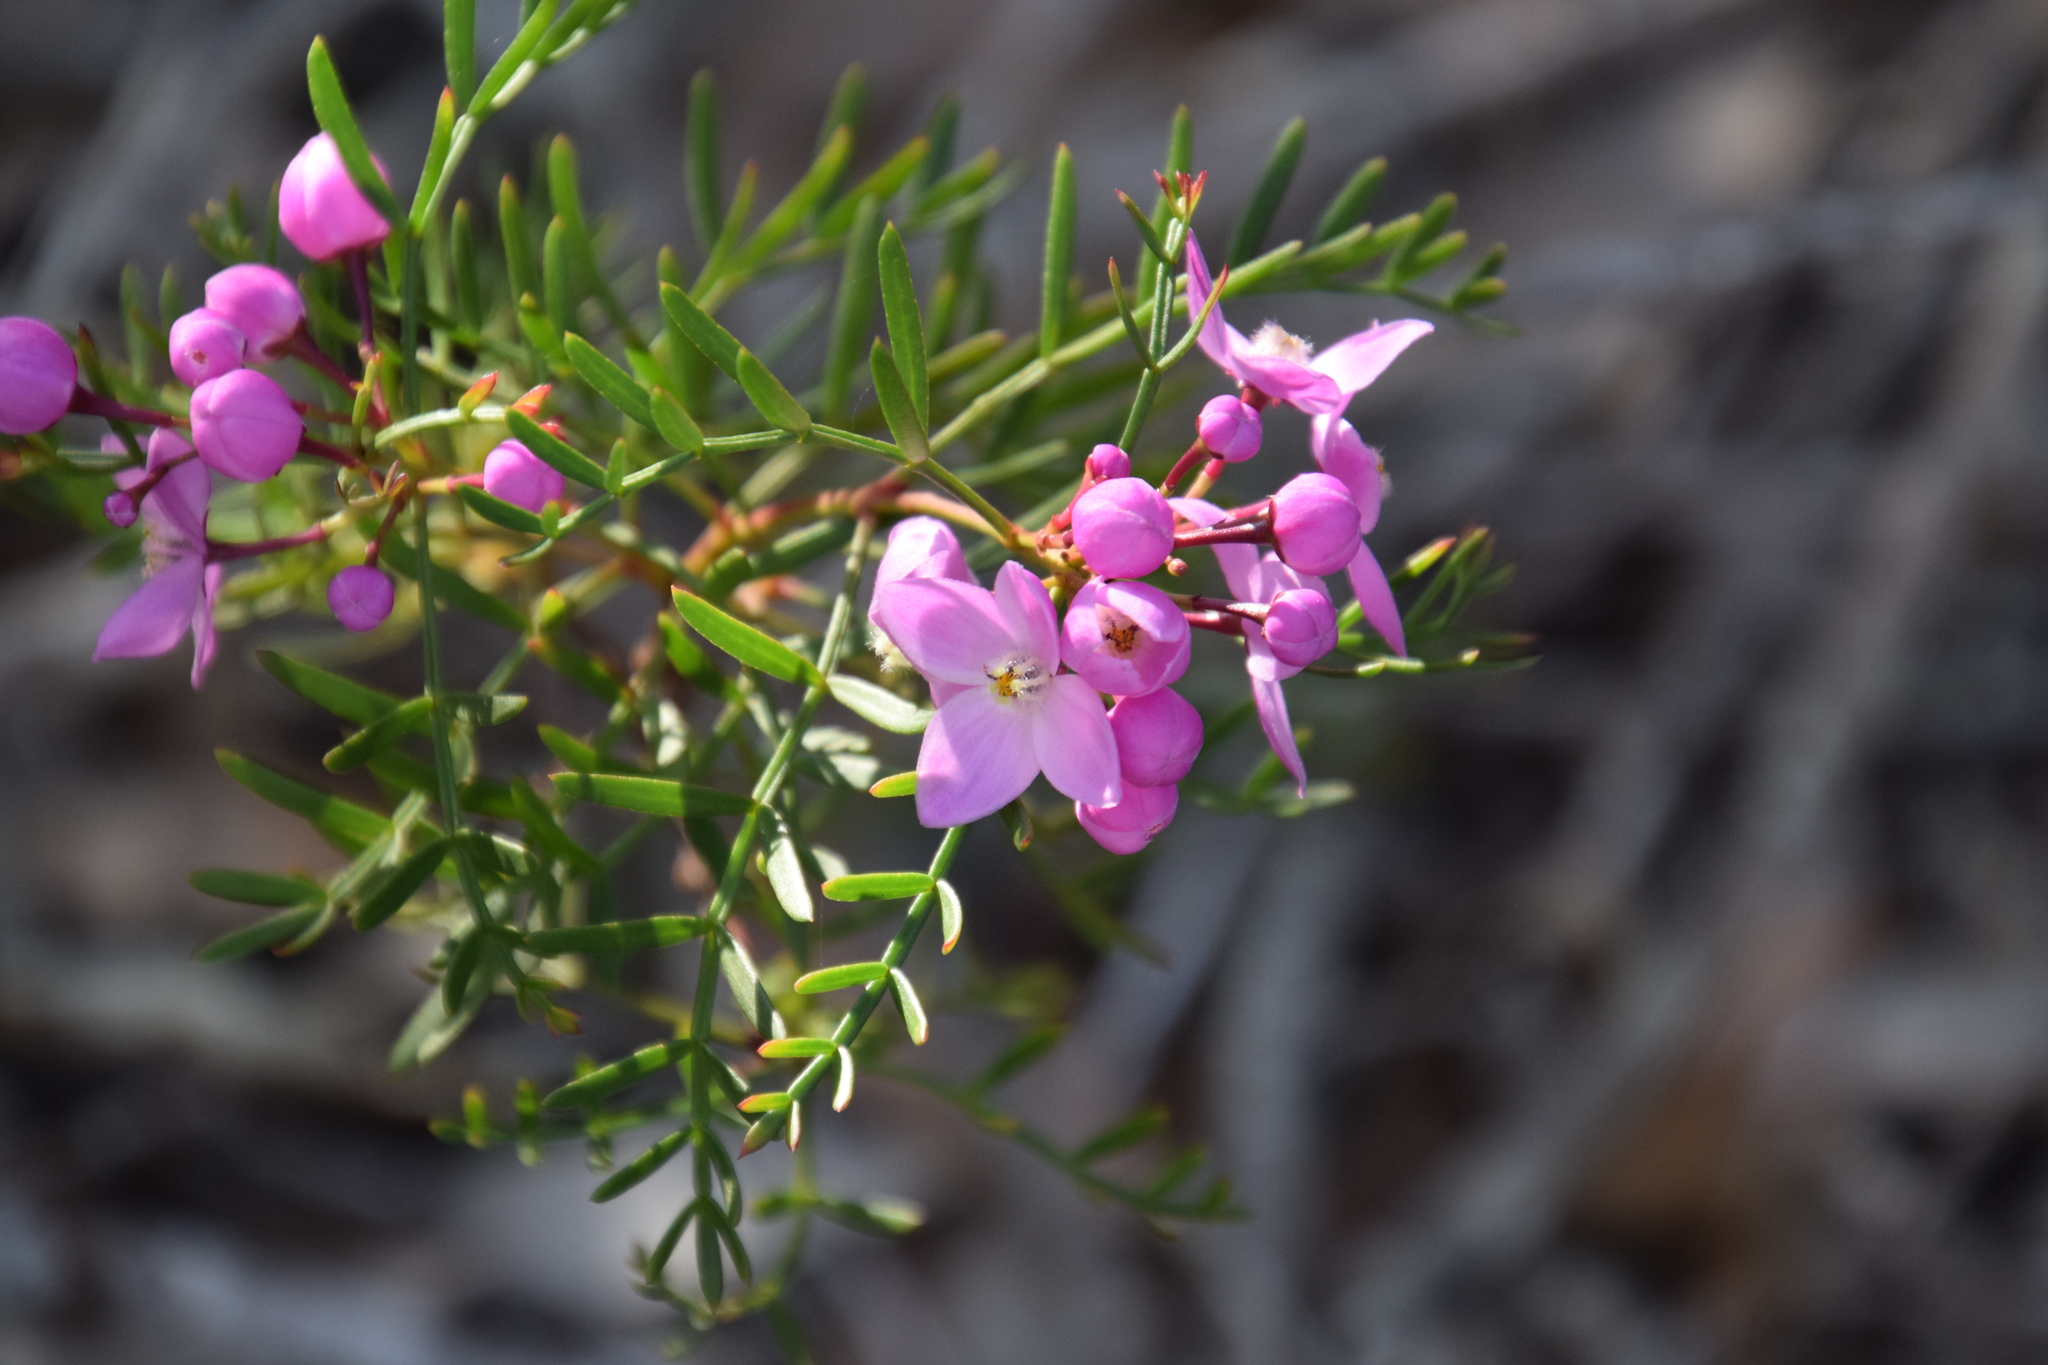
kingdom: Plantae
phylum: Tracheophyta
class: Magnoliopsida
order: Sapindales
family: Rutaceae
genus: Boronia
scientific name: Boronia pinnata
